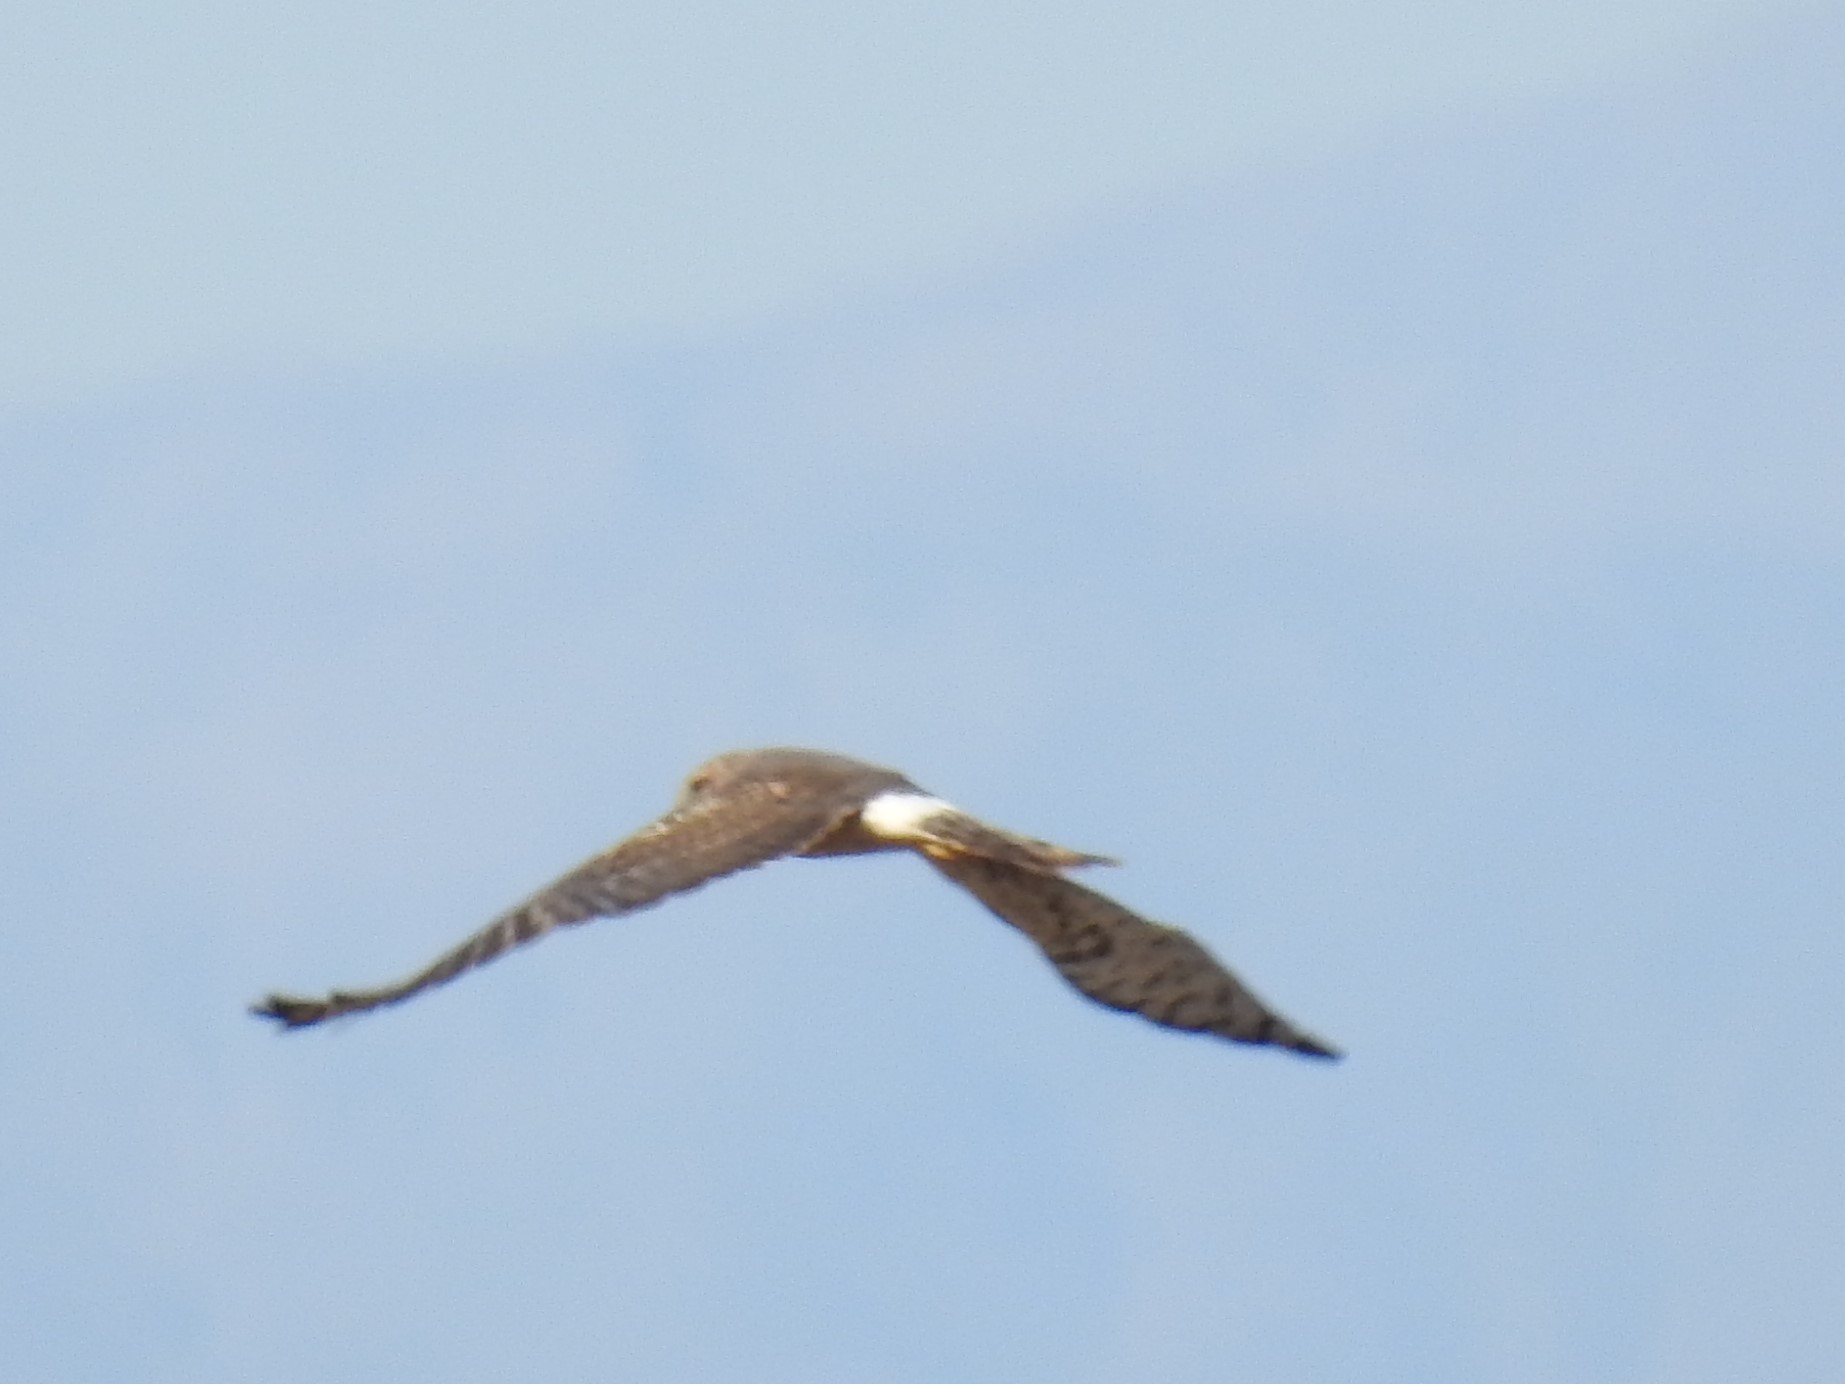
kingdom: Animalia
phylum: Chordata
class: Aves
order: Accipitriformes
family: Accipitridae
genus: Circus
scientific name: Circus cyaneus
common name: Hen harrier
